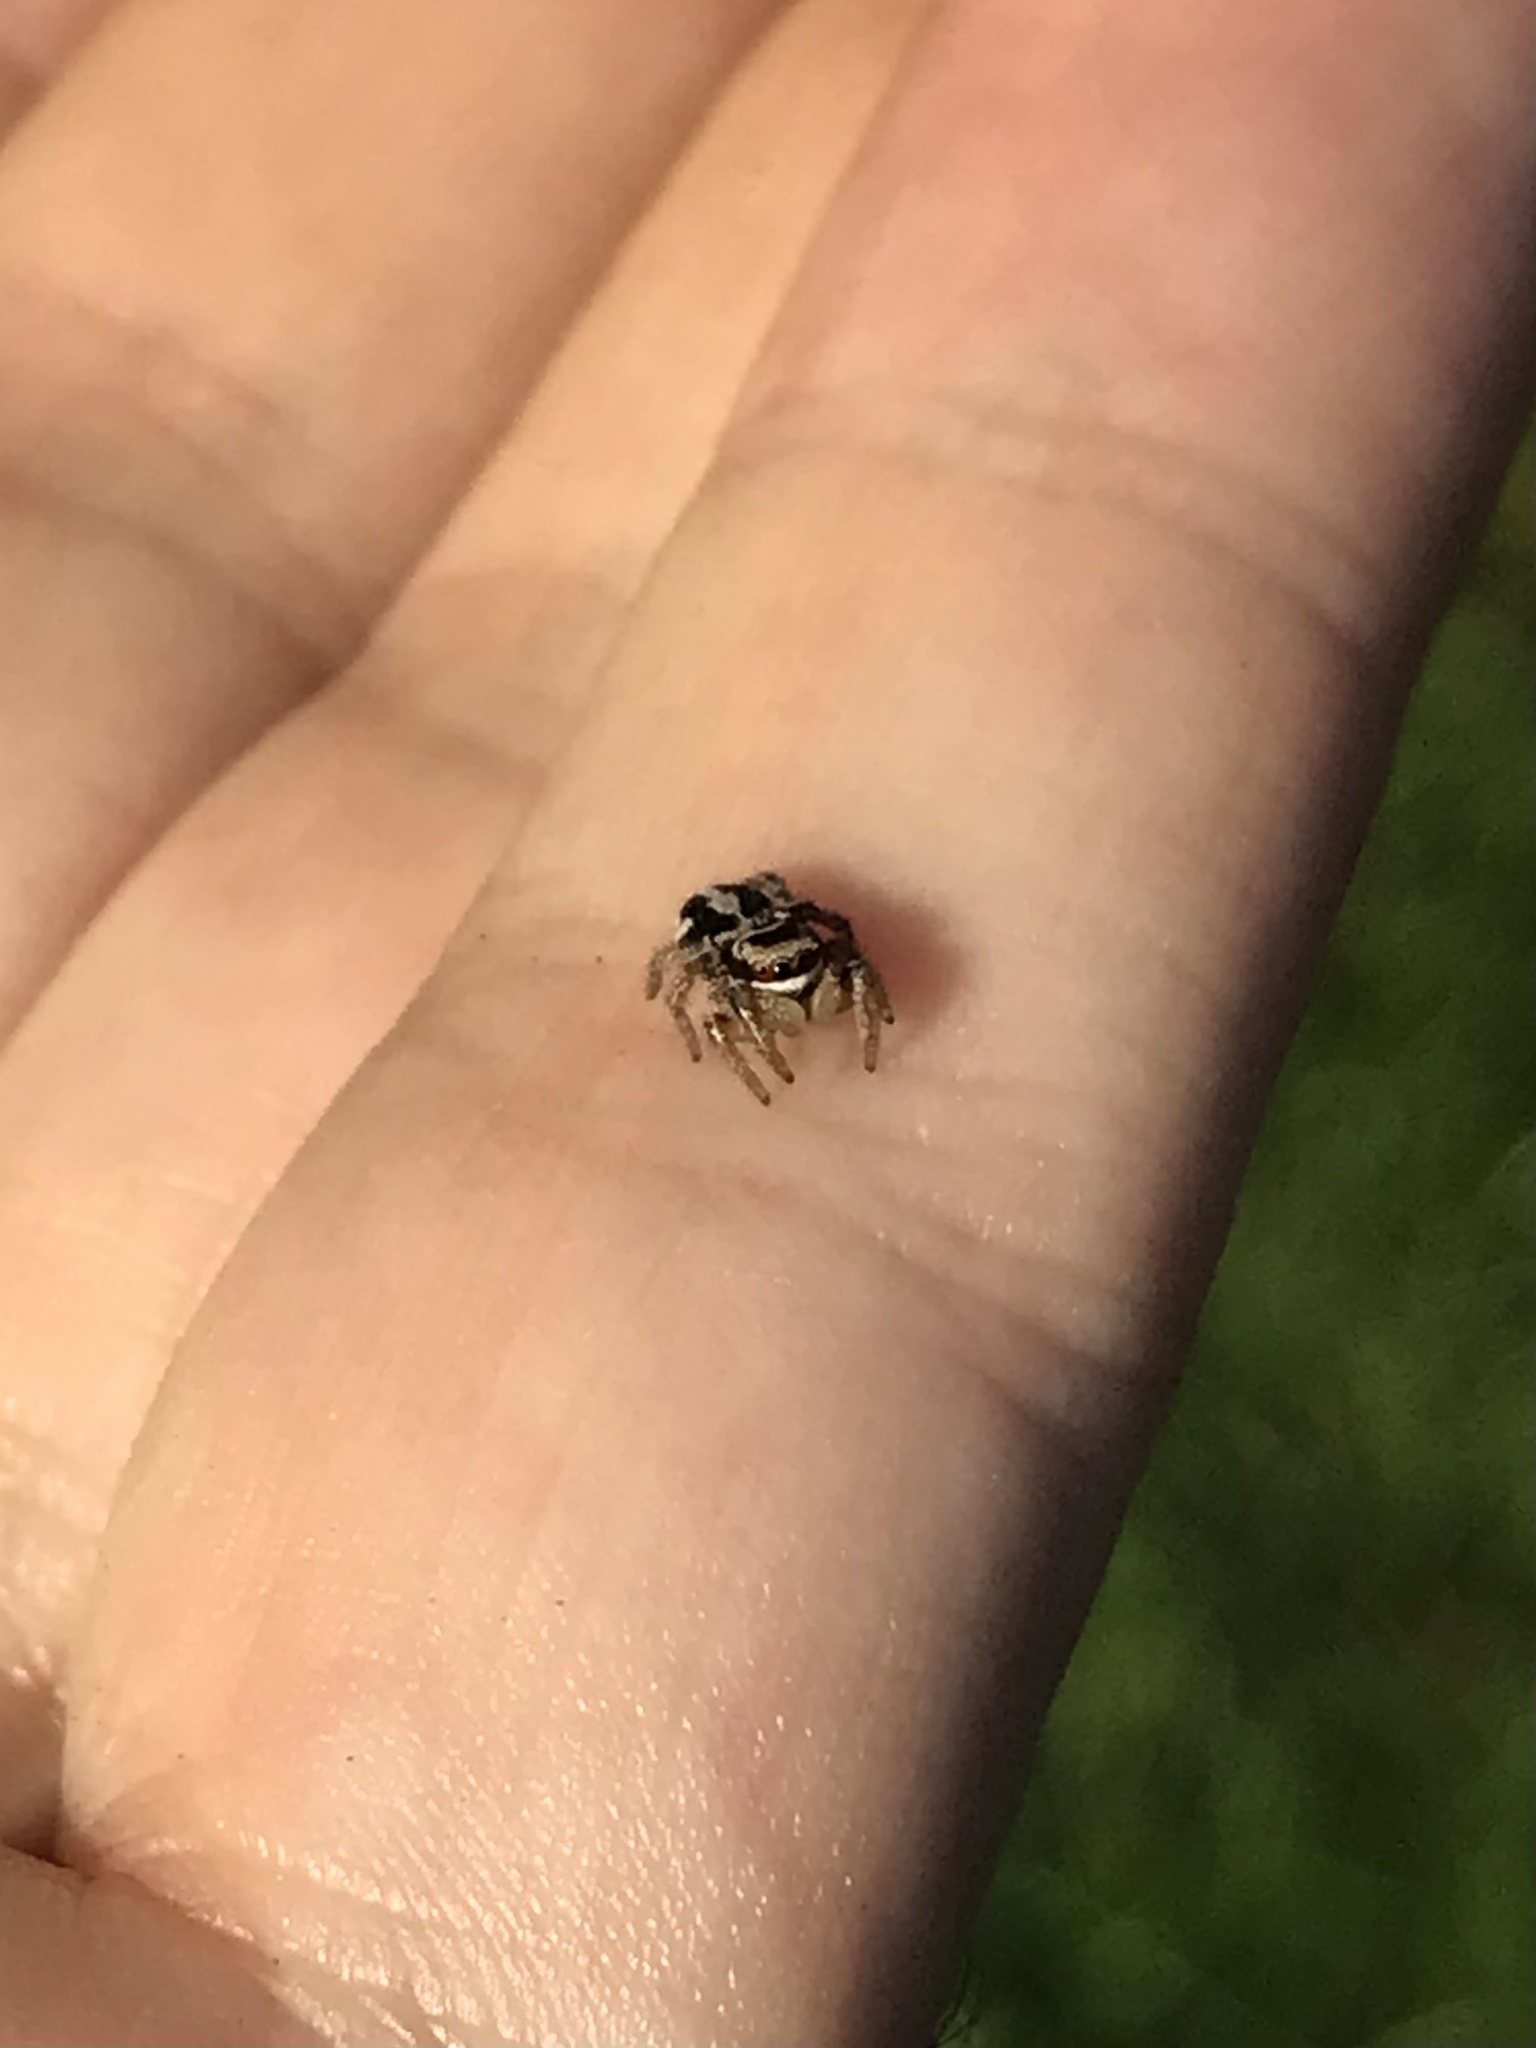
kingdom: Animalia
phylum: Arthropoda
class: Arachnida
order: Araneae
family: Salticidae
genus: Habronattus
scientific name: Habronattus viridipes
